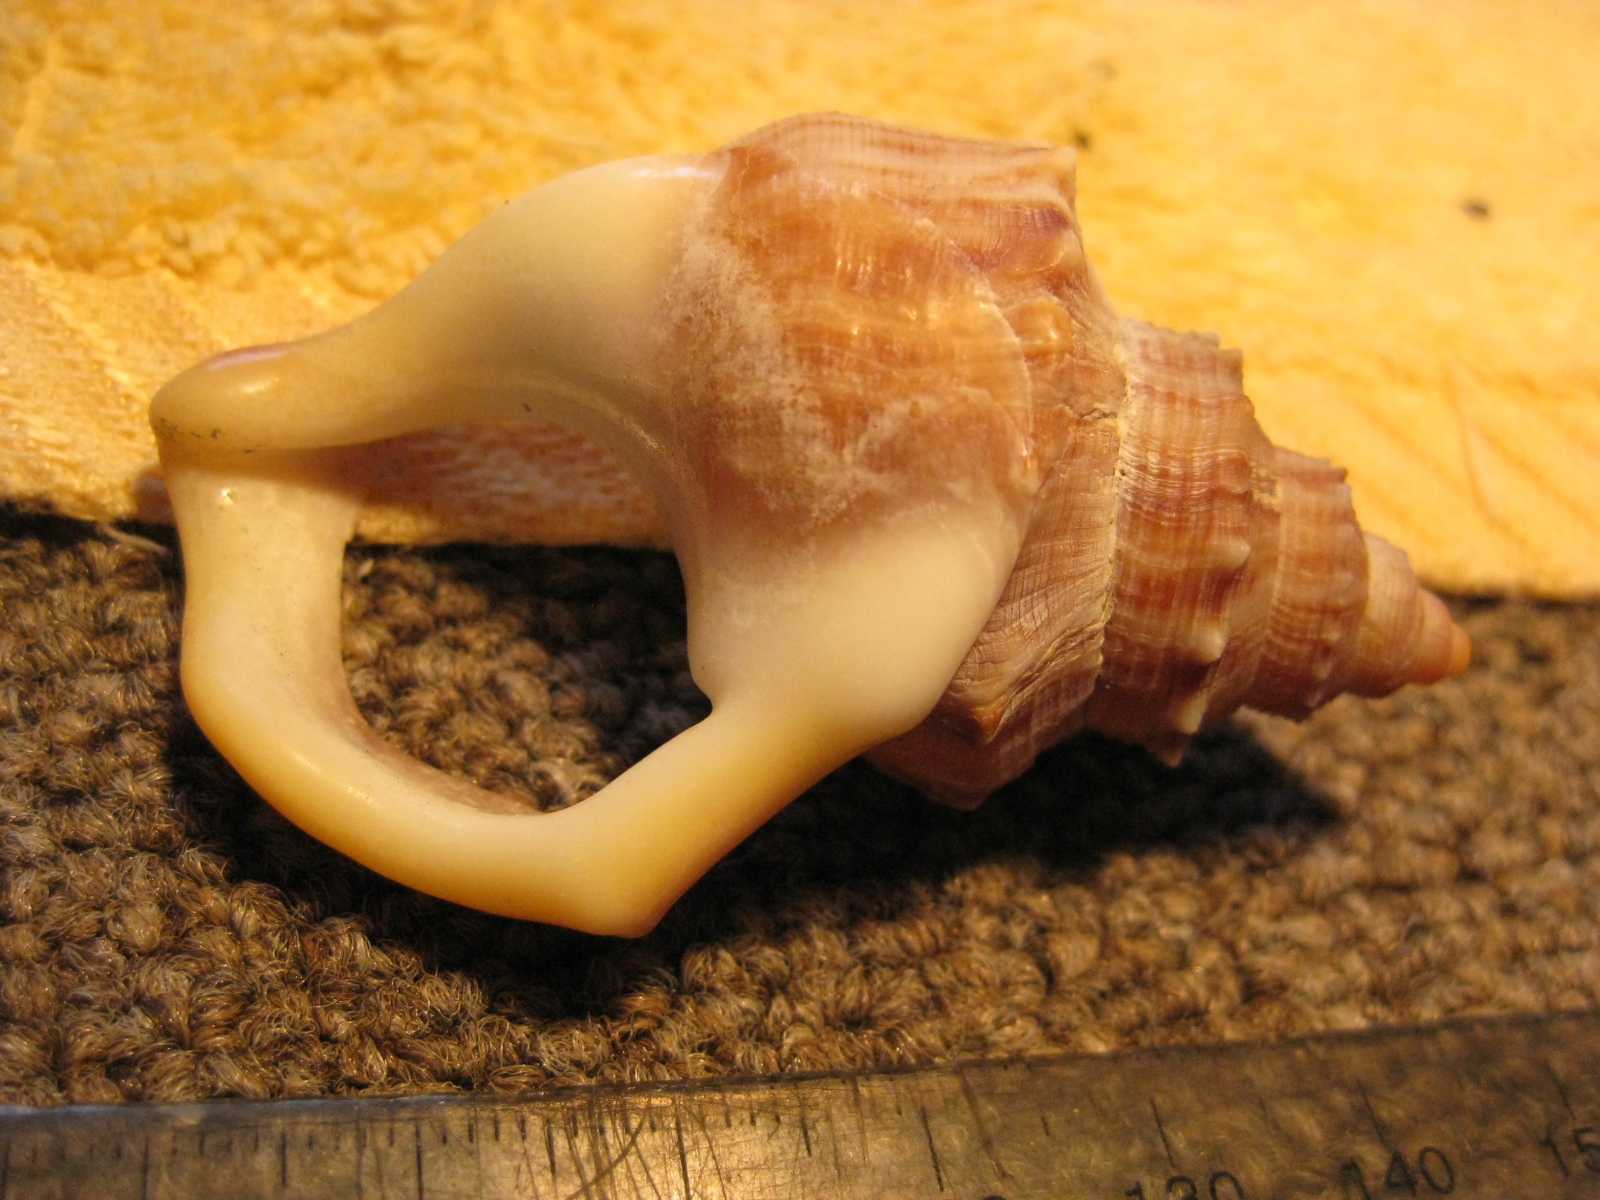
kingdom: Animalia
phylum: Mollusca
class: Gastropoda
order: Littorinimorpha
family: Struthiolariidae
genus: Struthiolaria
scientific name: Struthiolaria papulosa
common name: Large ostrich foot
